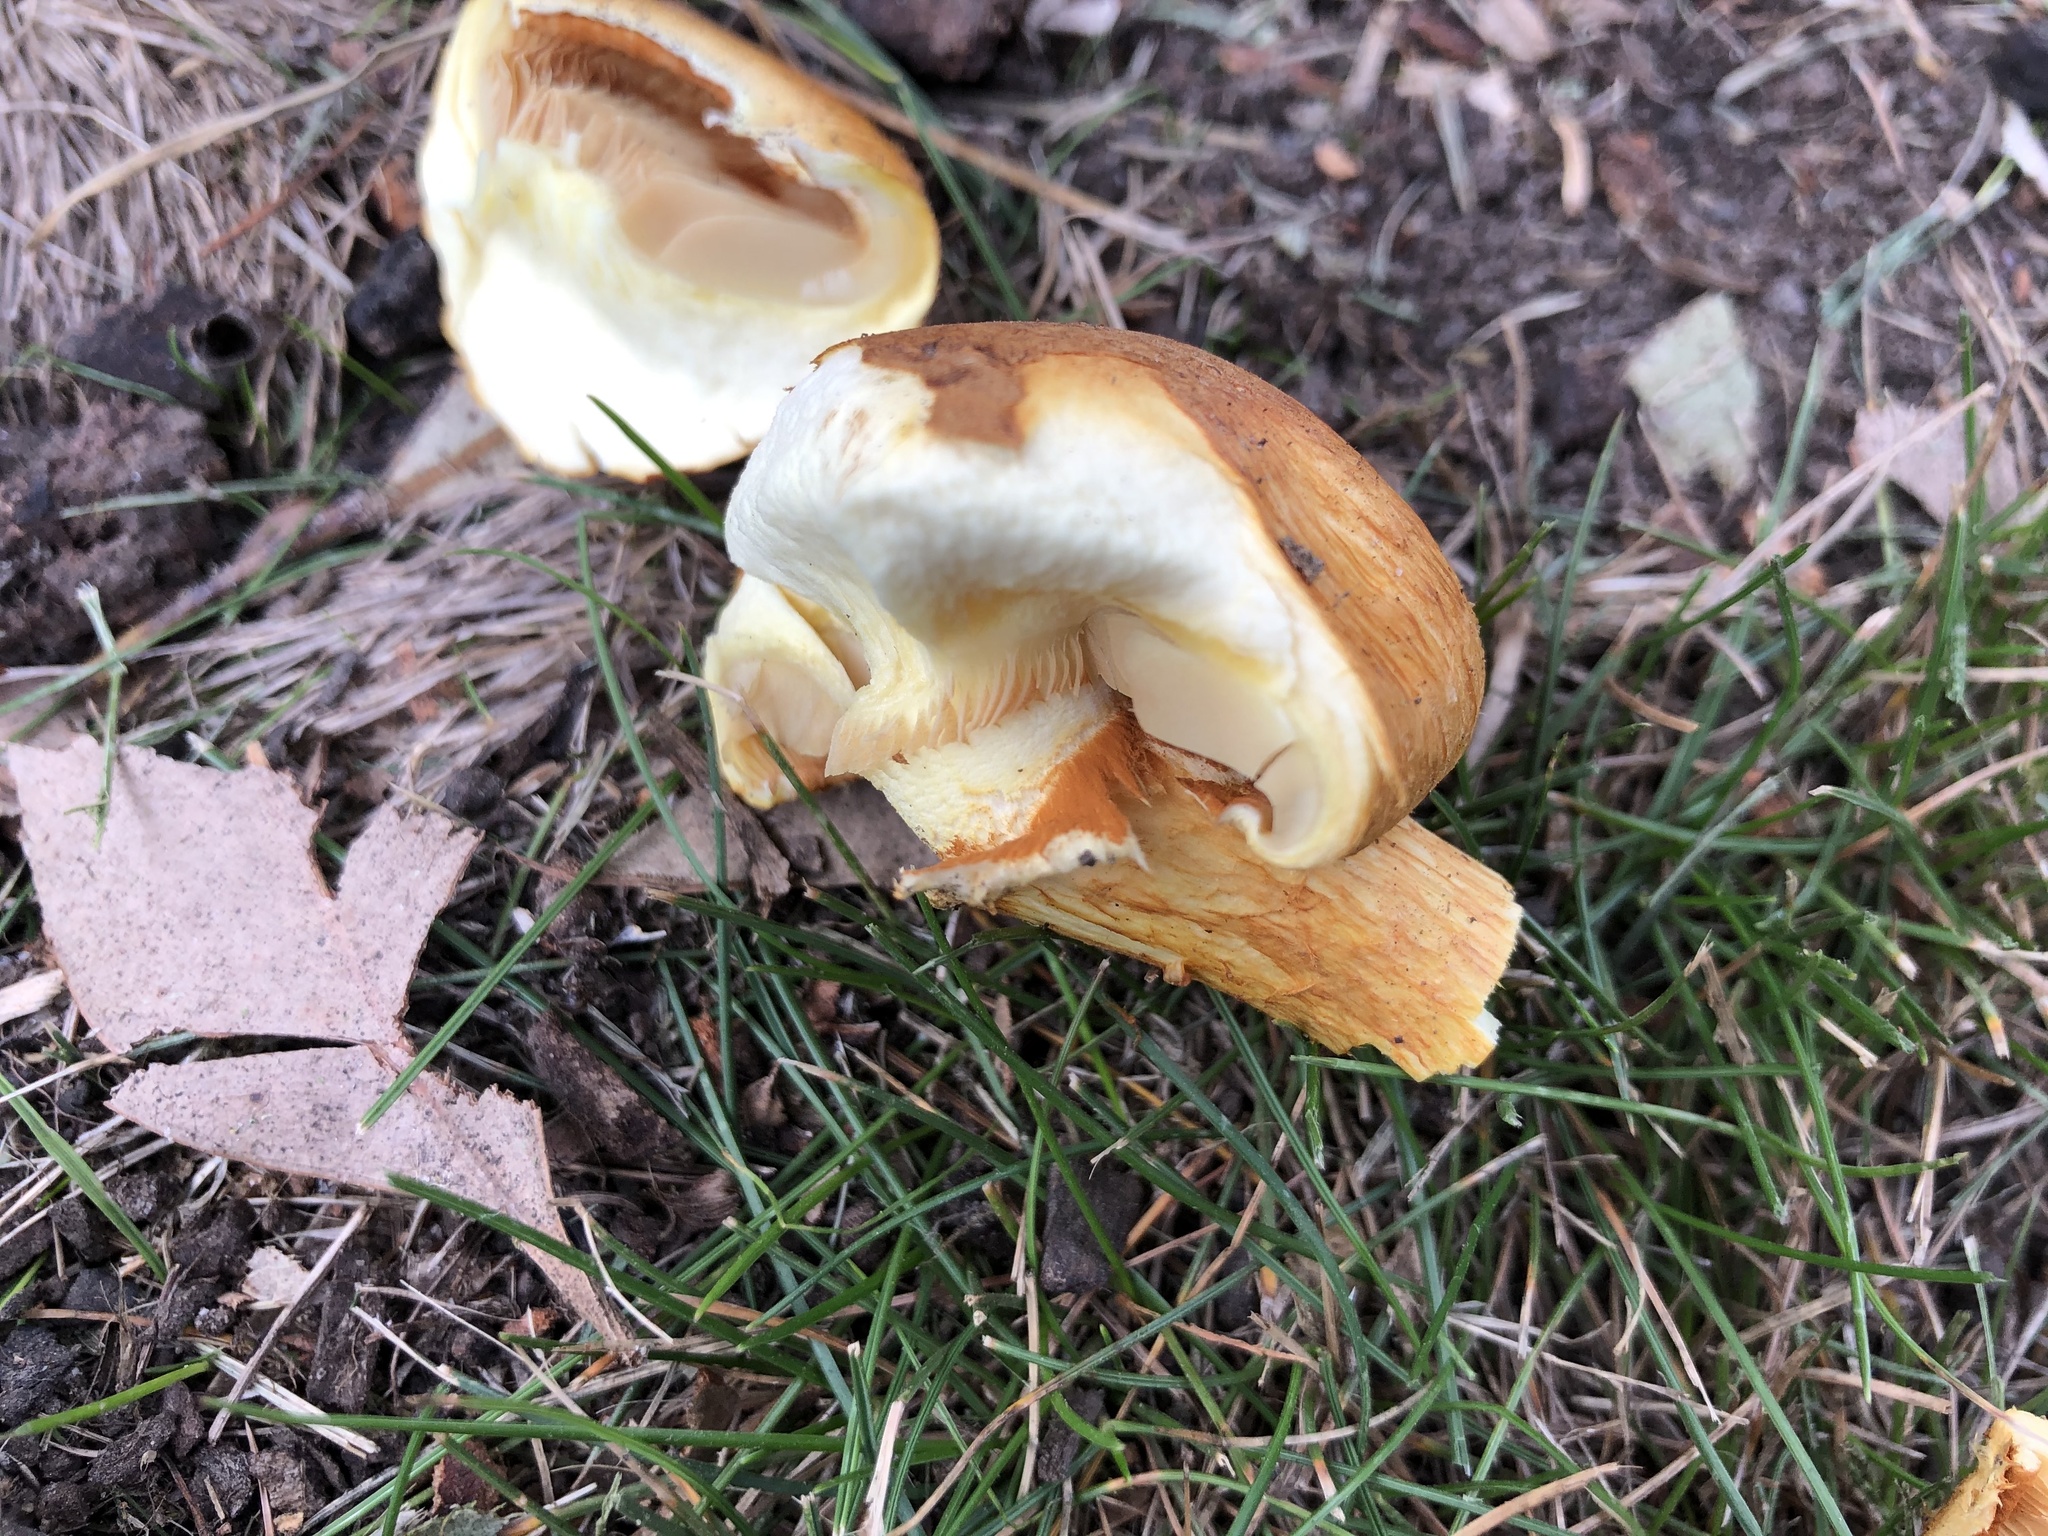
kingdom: Fungi
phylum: Basidiomycota
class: Agaricomycetes
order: Agaricales
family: Hymenogastraceae
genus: Gymnopilus
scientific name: Gymnopilus junonius
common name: Spectacular rustgill
